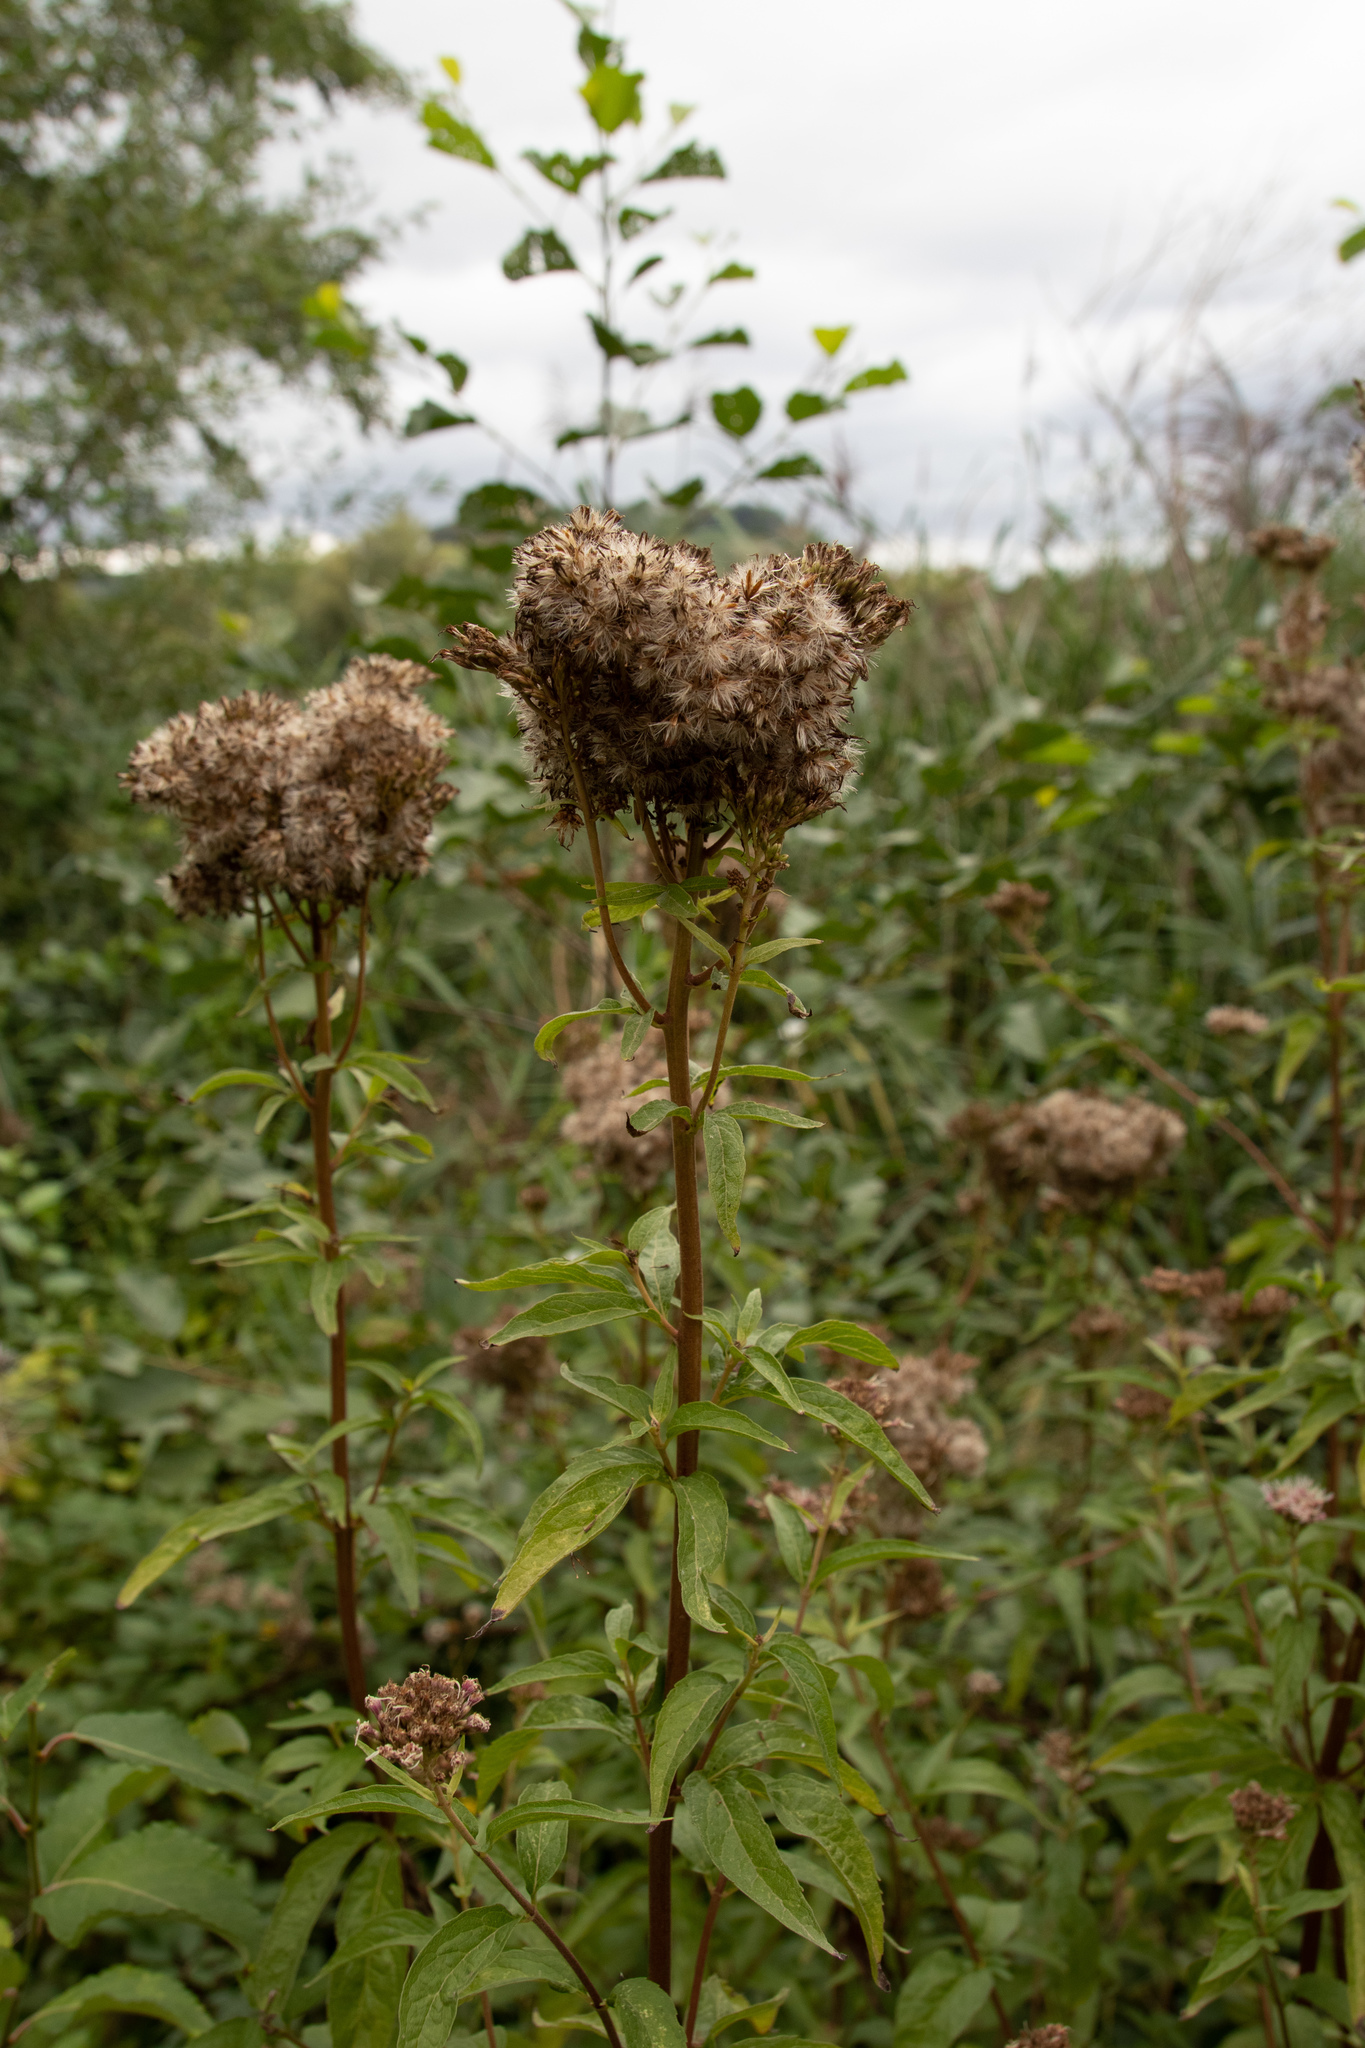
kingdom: Plantae
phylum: Tracheophyta
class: Magnoliopsida
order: Asterales
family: Asteraceae
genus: Eupatorium
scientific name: Eupatorium cannabinum
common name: Hemp-agrimony
